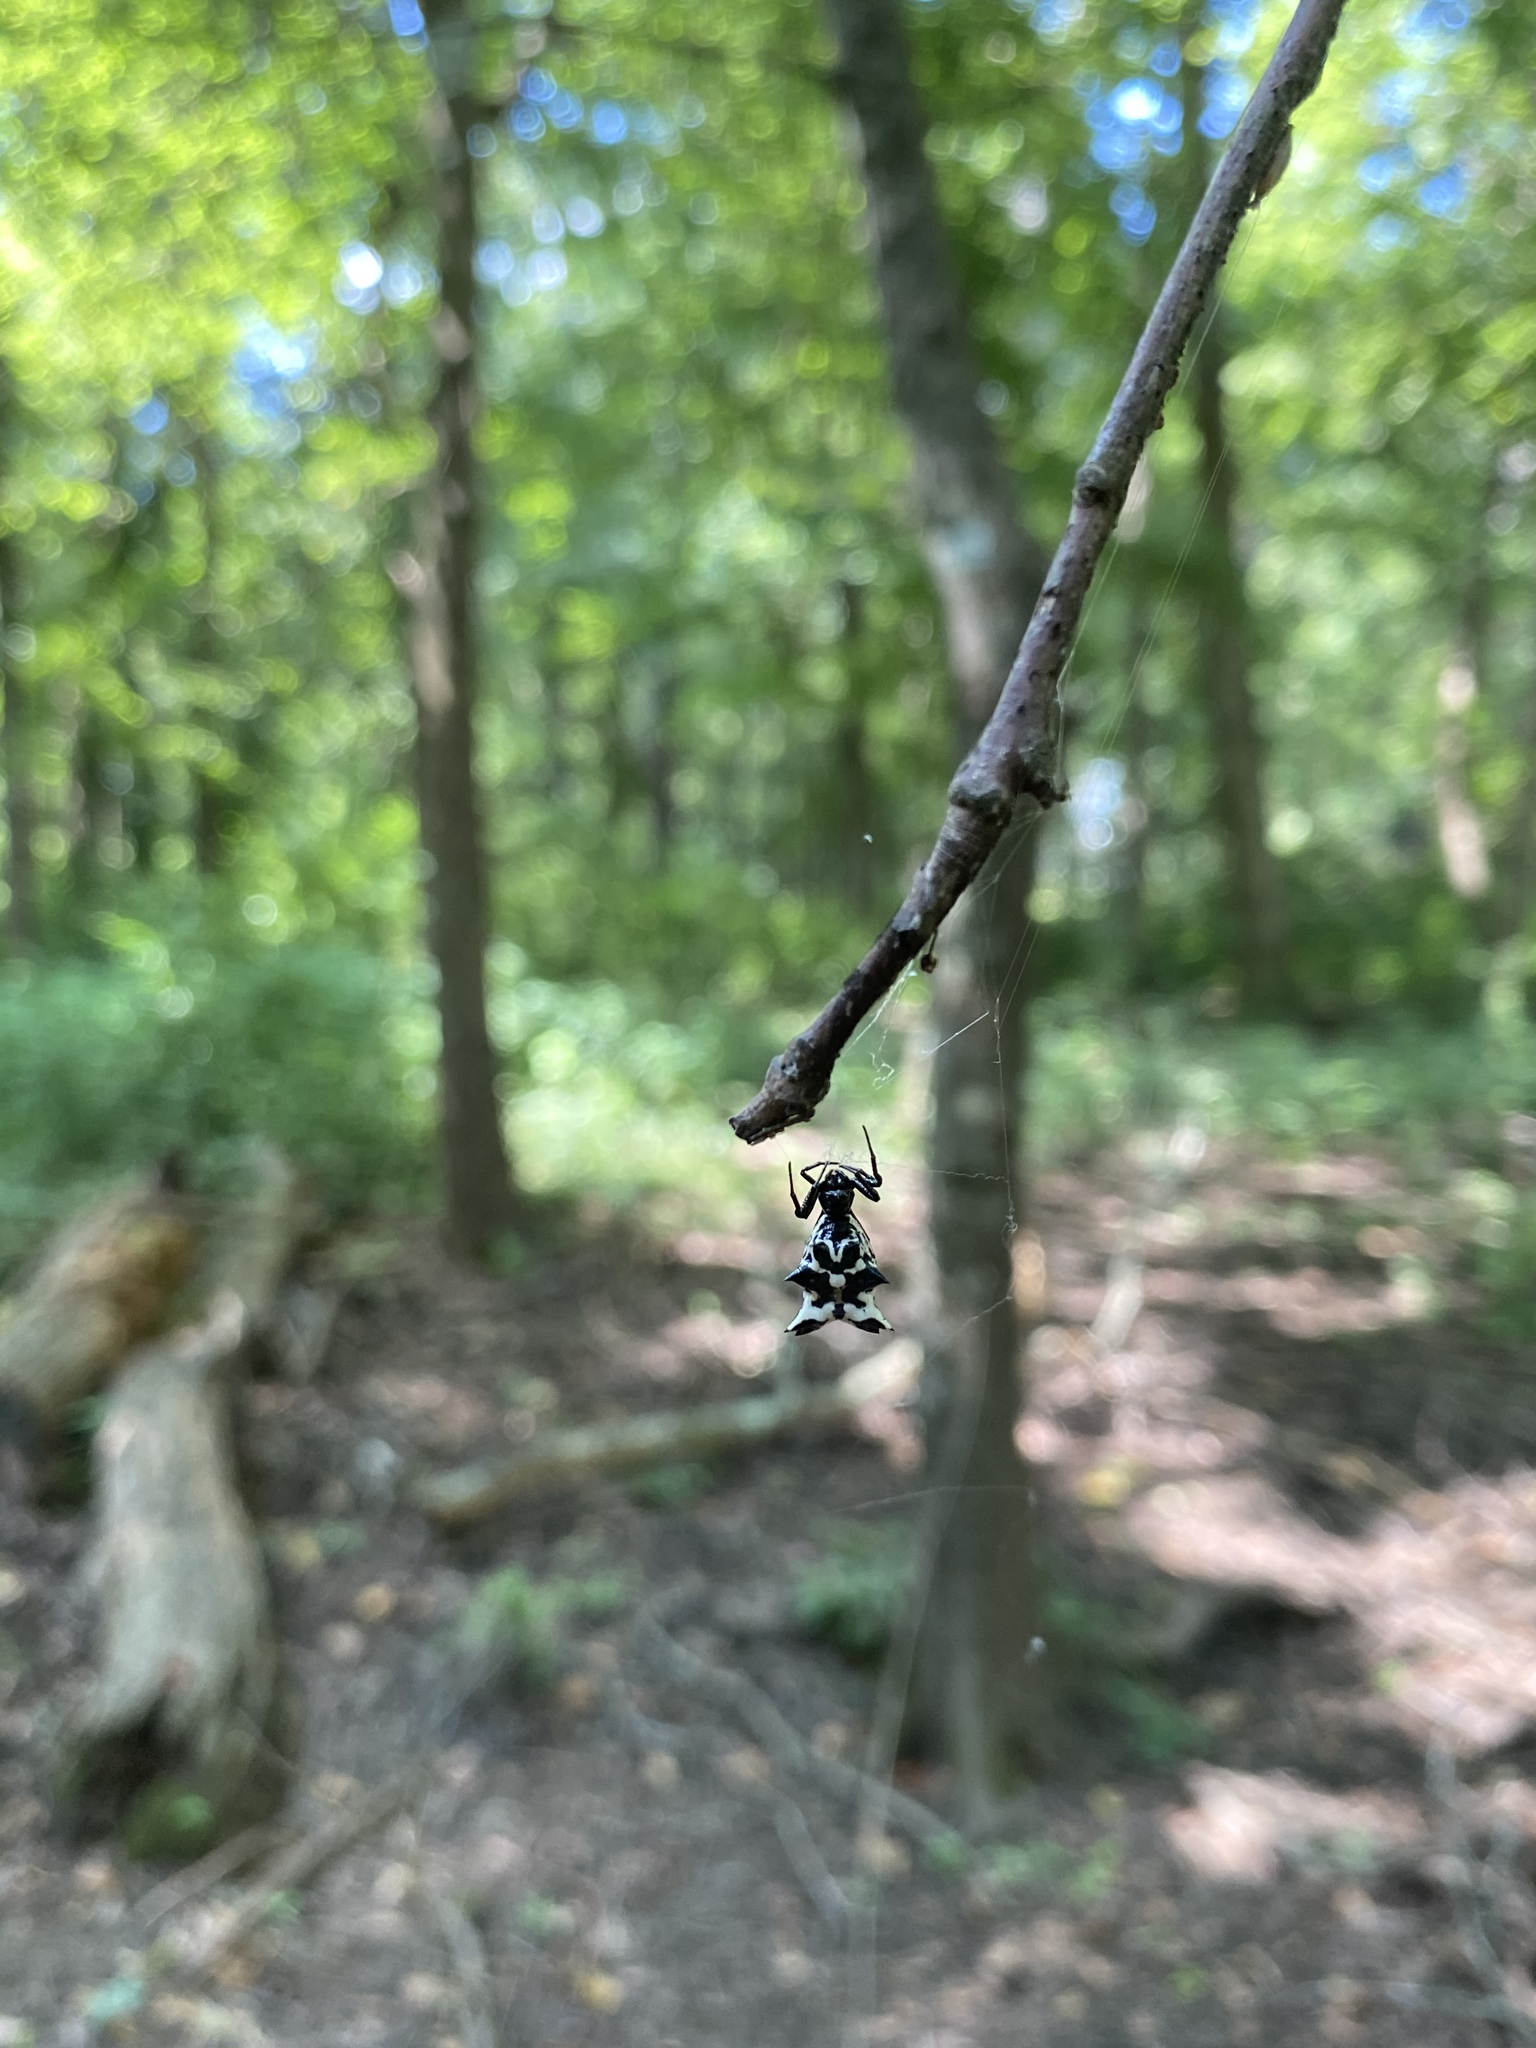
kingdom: Animalia
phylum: Arthropoda
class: Arachnida
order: Araneae
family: Araneidae
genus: Micrathena
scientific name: Micrathena gracilis
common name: Orb weavers
